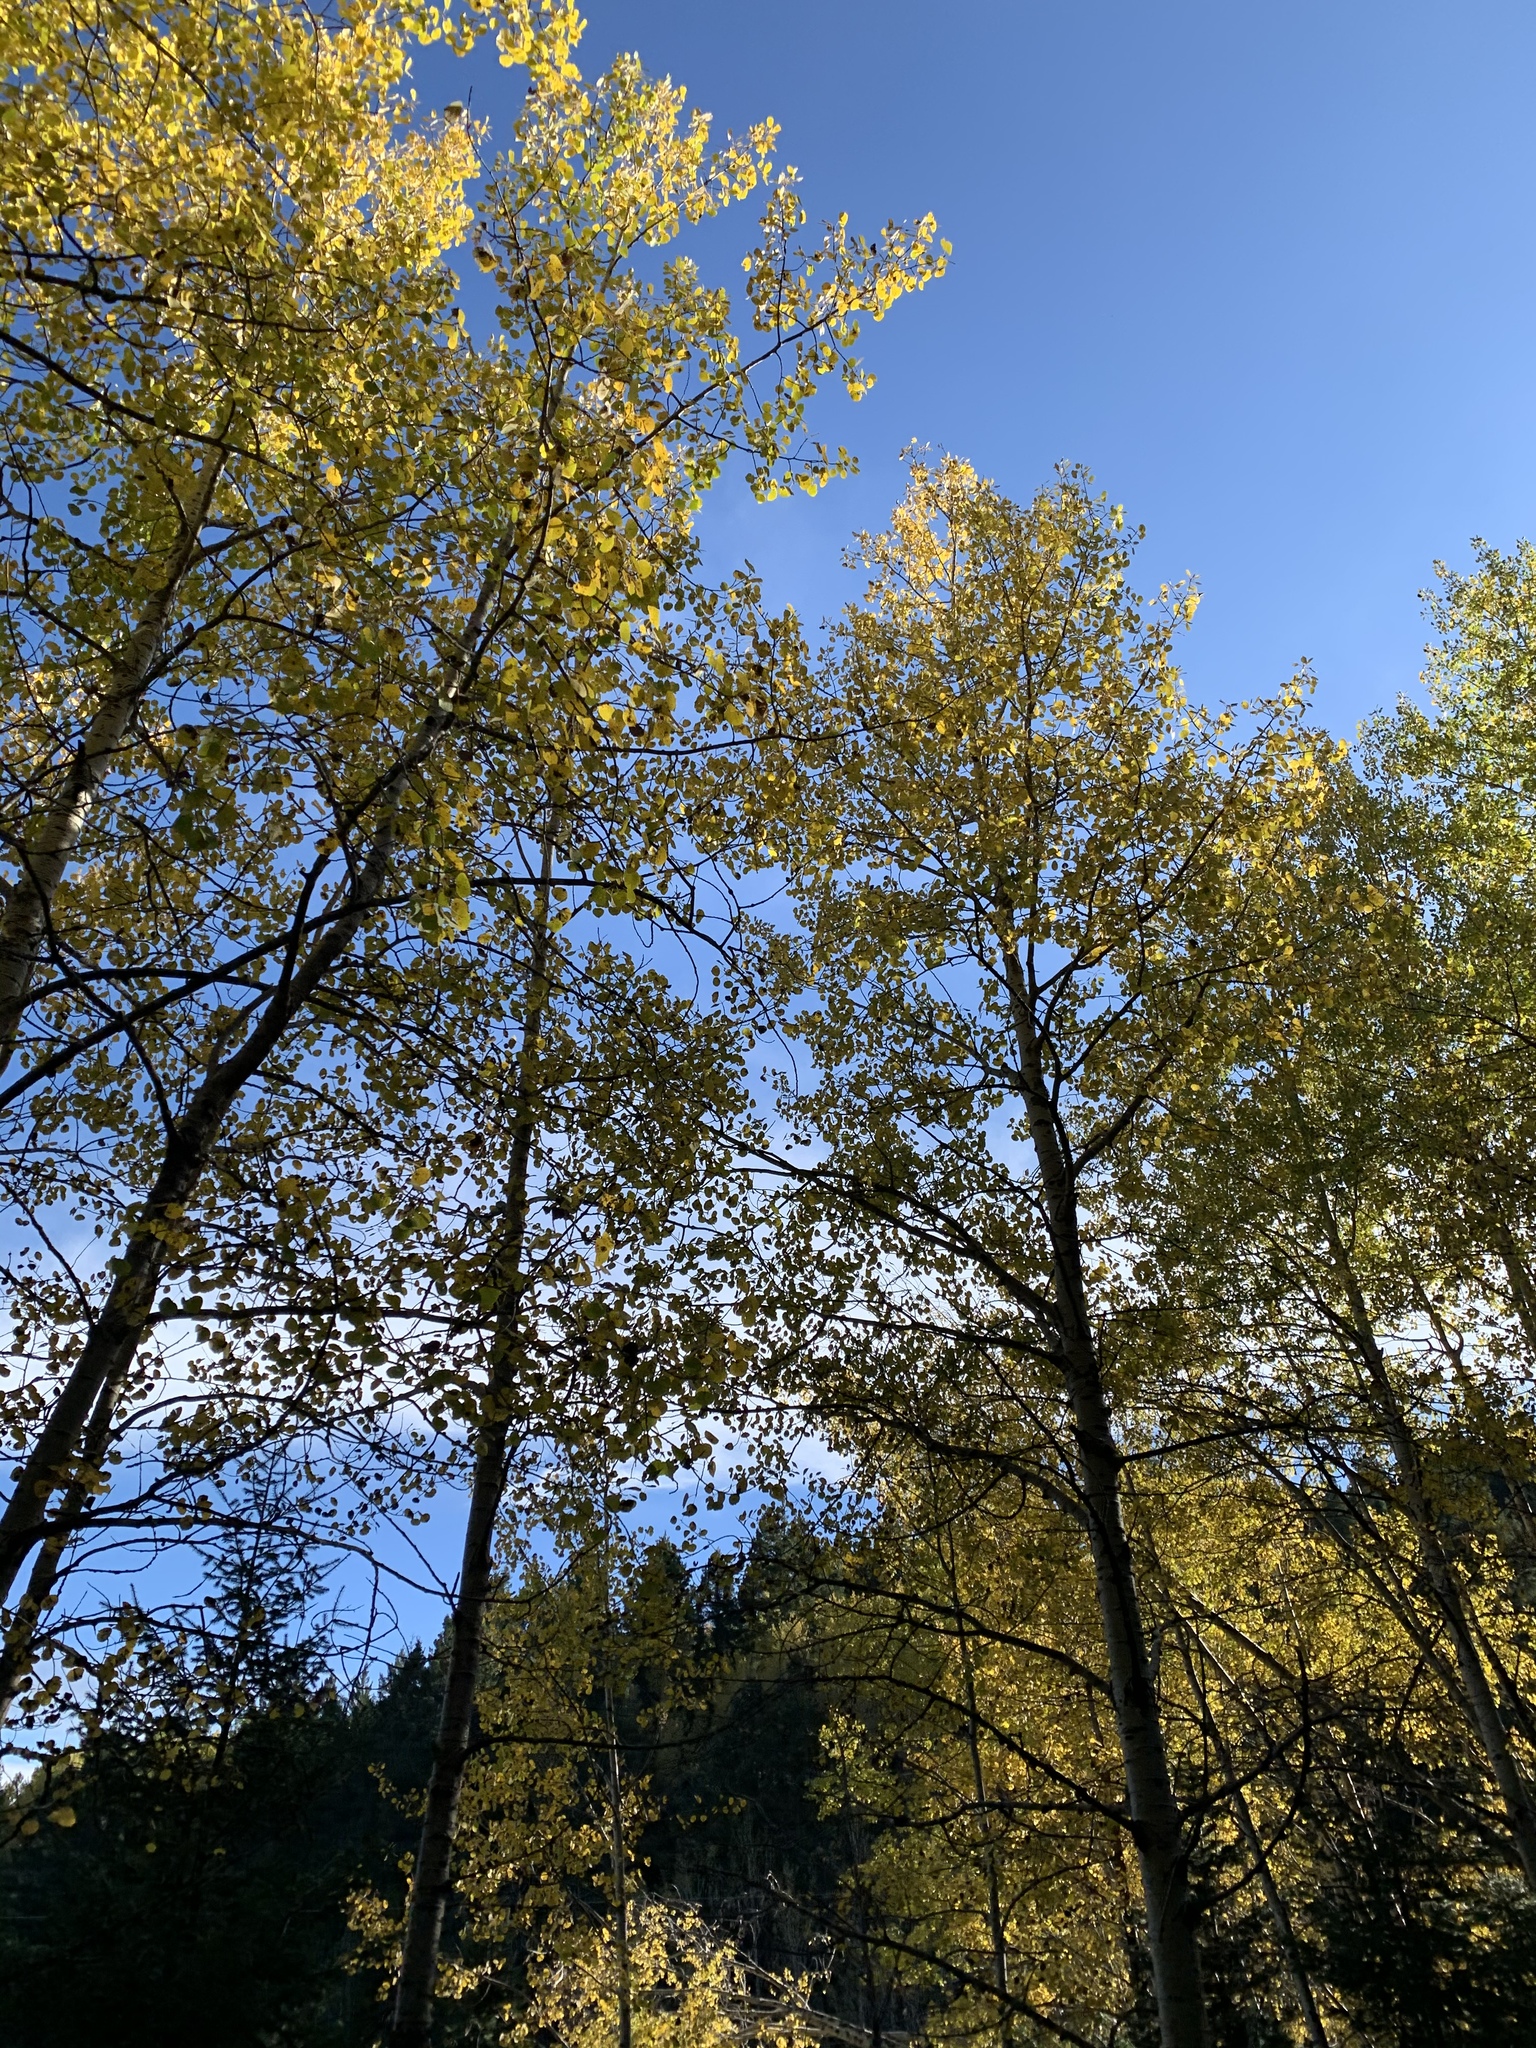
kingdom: Plantae
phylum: Tracheophyta
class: Magnoliopsida
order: Malpighiales
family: Salicaceae
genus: Populus
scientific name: Populus tremuloides
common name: Quaking aspen
